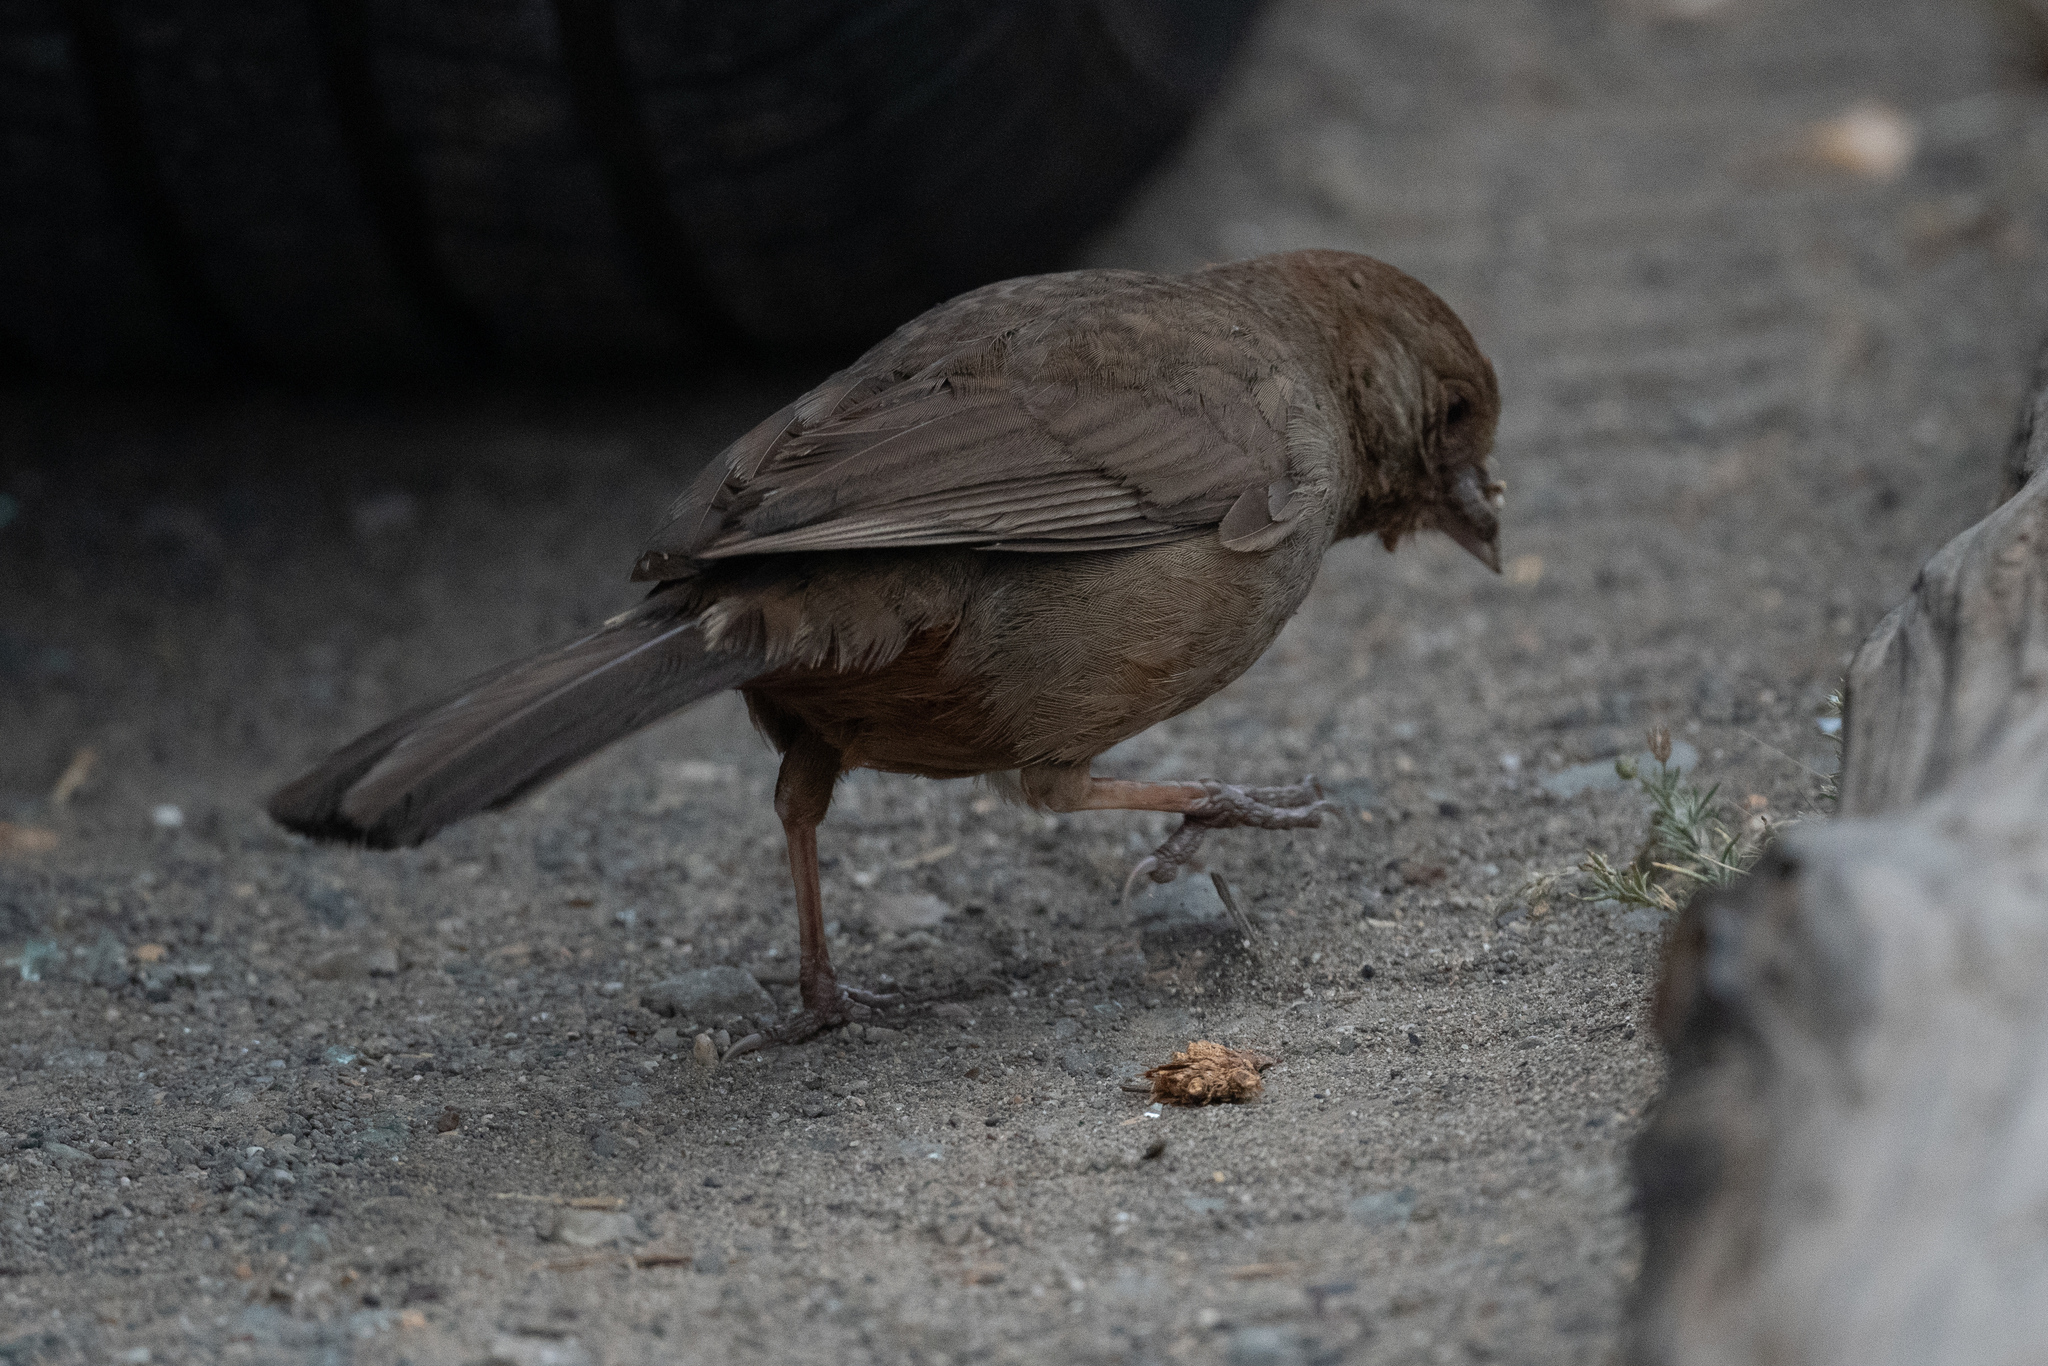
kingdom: Animalia
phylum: Chordata
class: Aves
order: Passeriformes
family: Passerellidae
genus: Melozone
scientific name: Melozone crissalis
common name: California towhee
